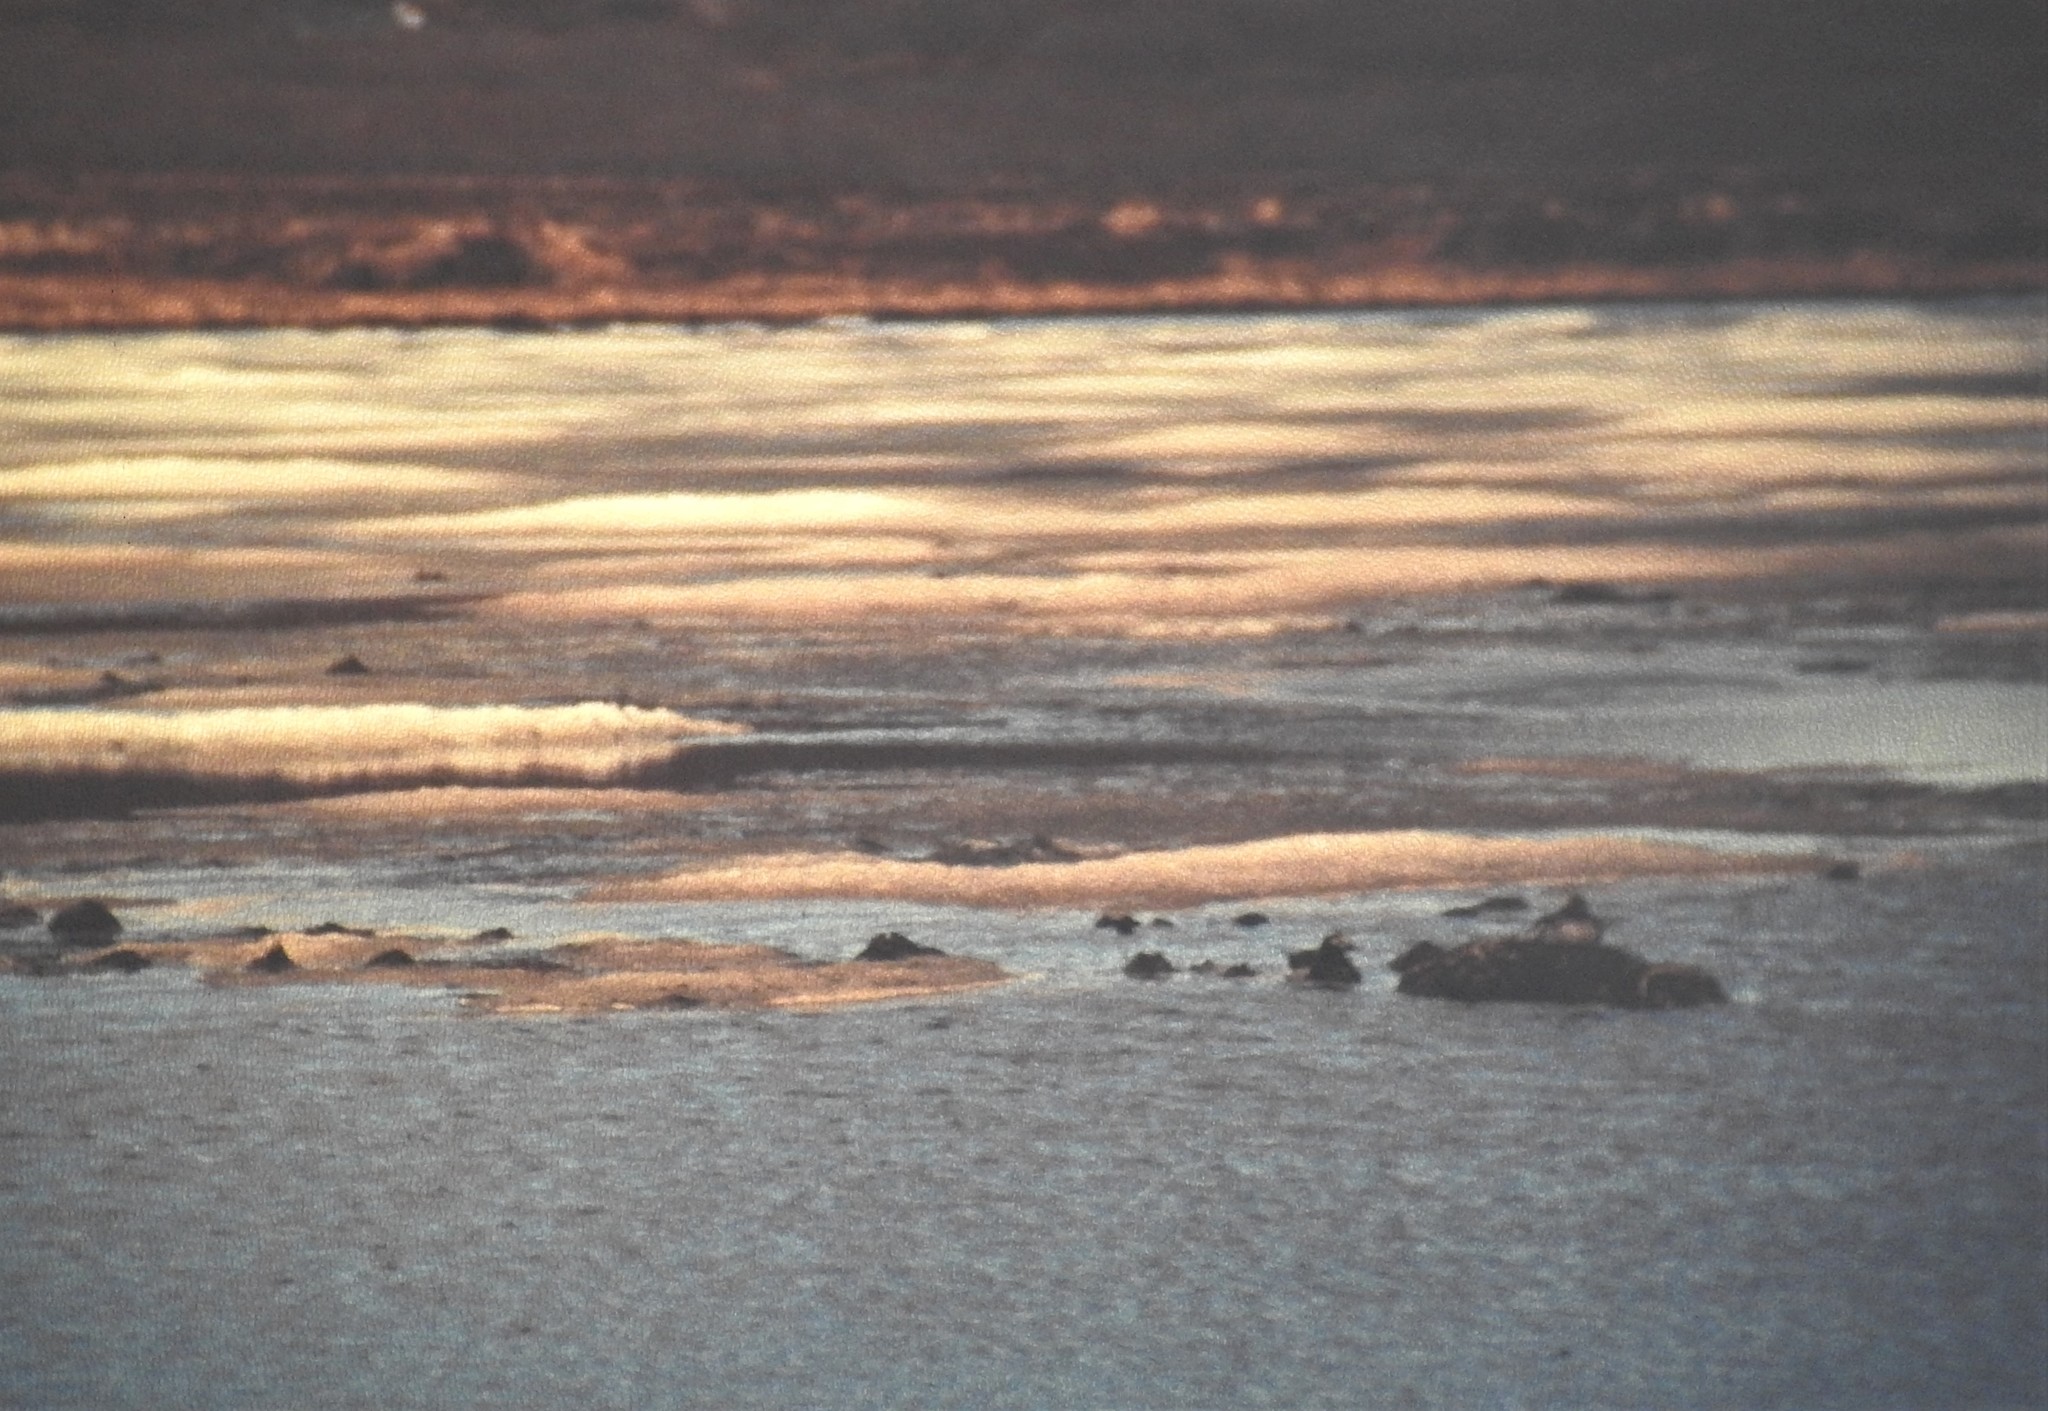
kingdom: Animalia
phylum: Chordata
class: Aves
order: Anseriformes
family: Anatidae
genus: Clangula
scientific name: Clangula hyemalis
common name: Long-tailed duck
